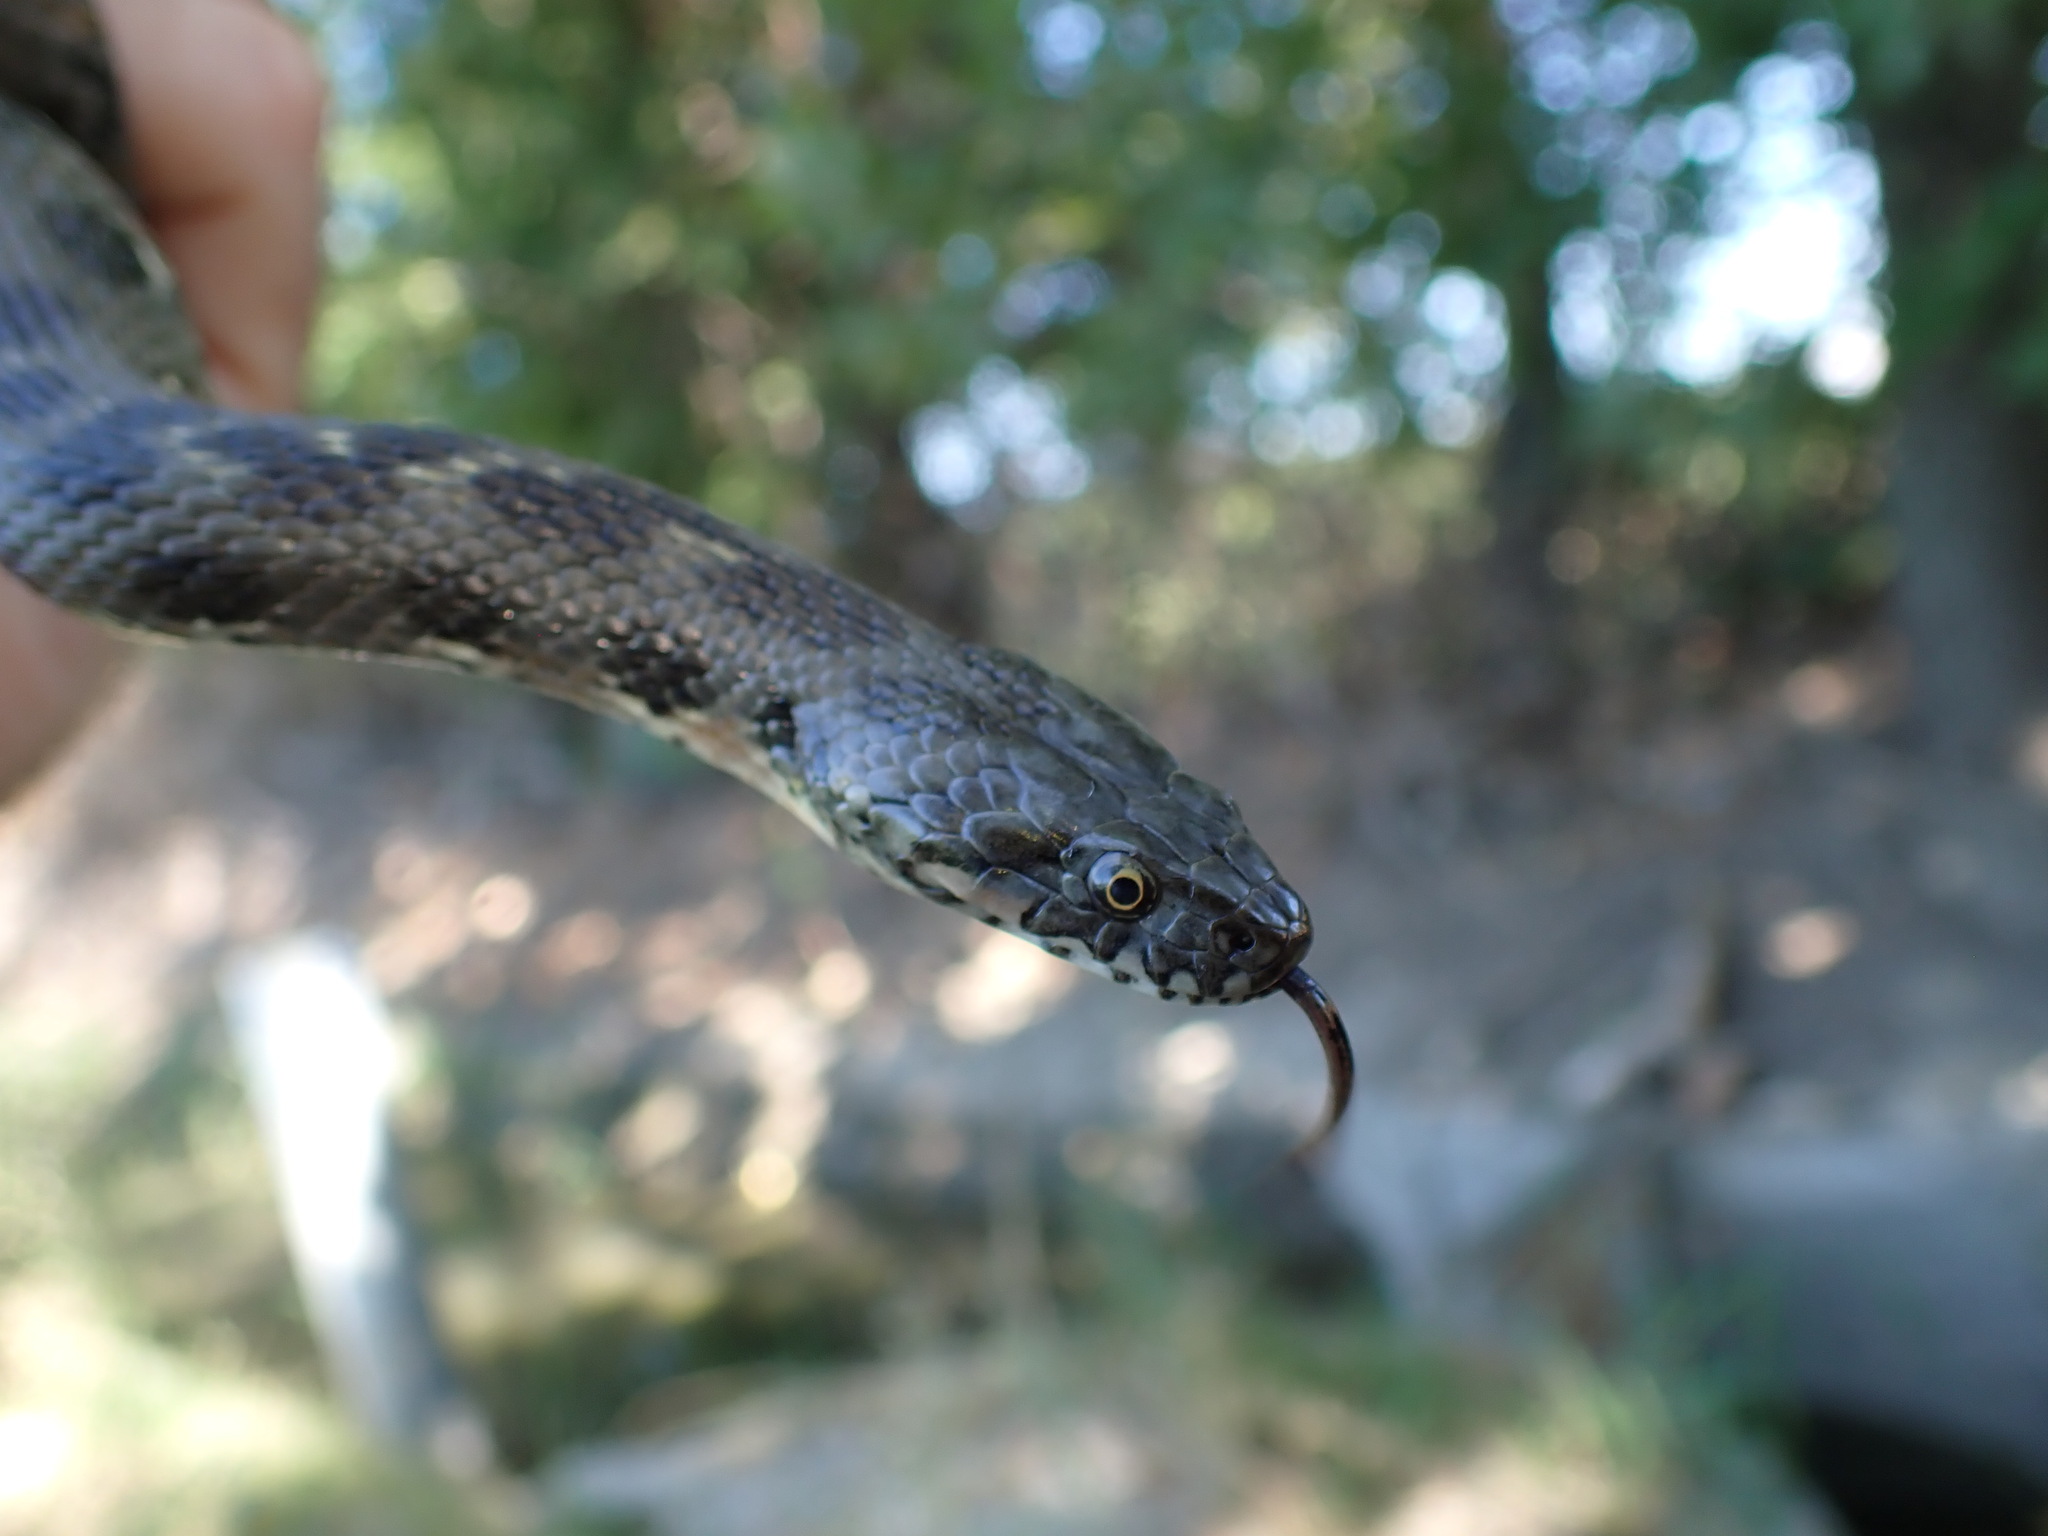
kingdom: Animalia
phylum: Chordata
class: Squamata
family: Colubridae
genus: Natrix
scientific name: Natrix maura
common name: Viperine water snake
